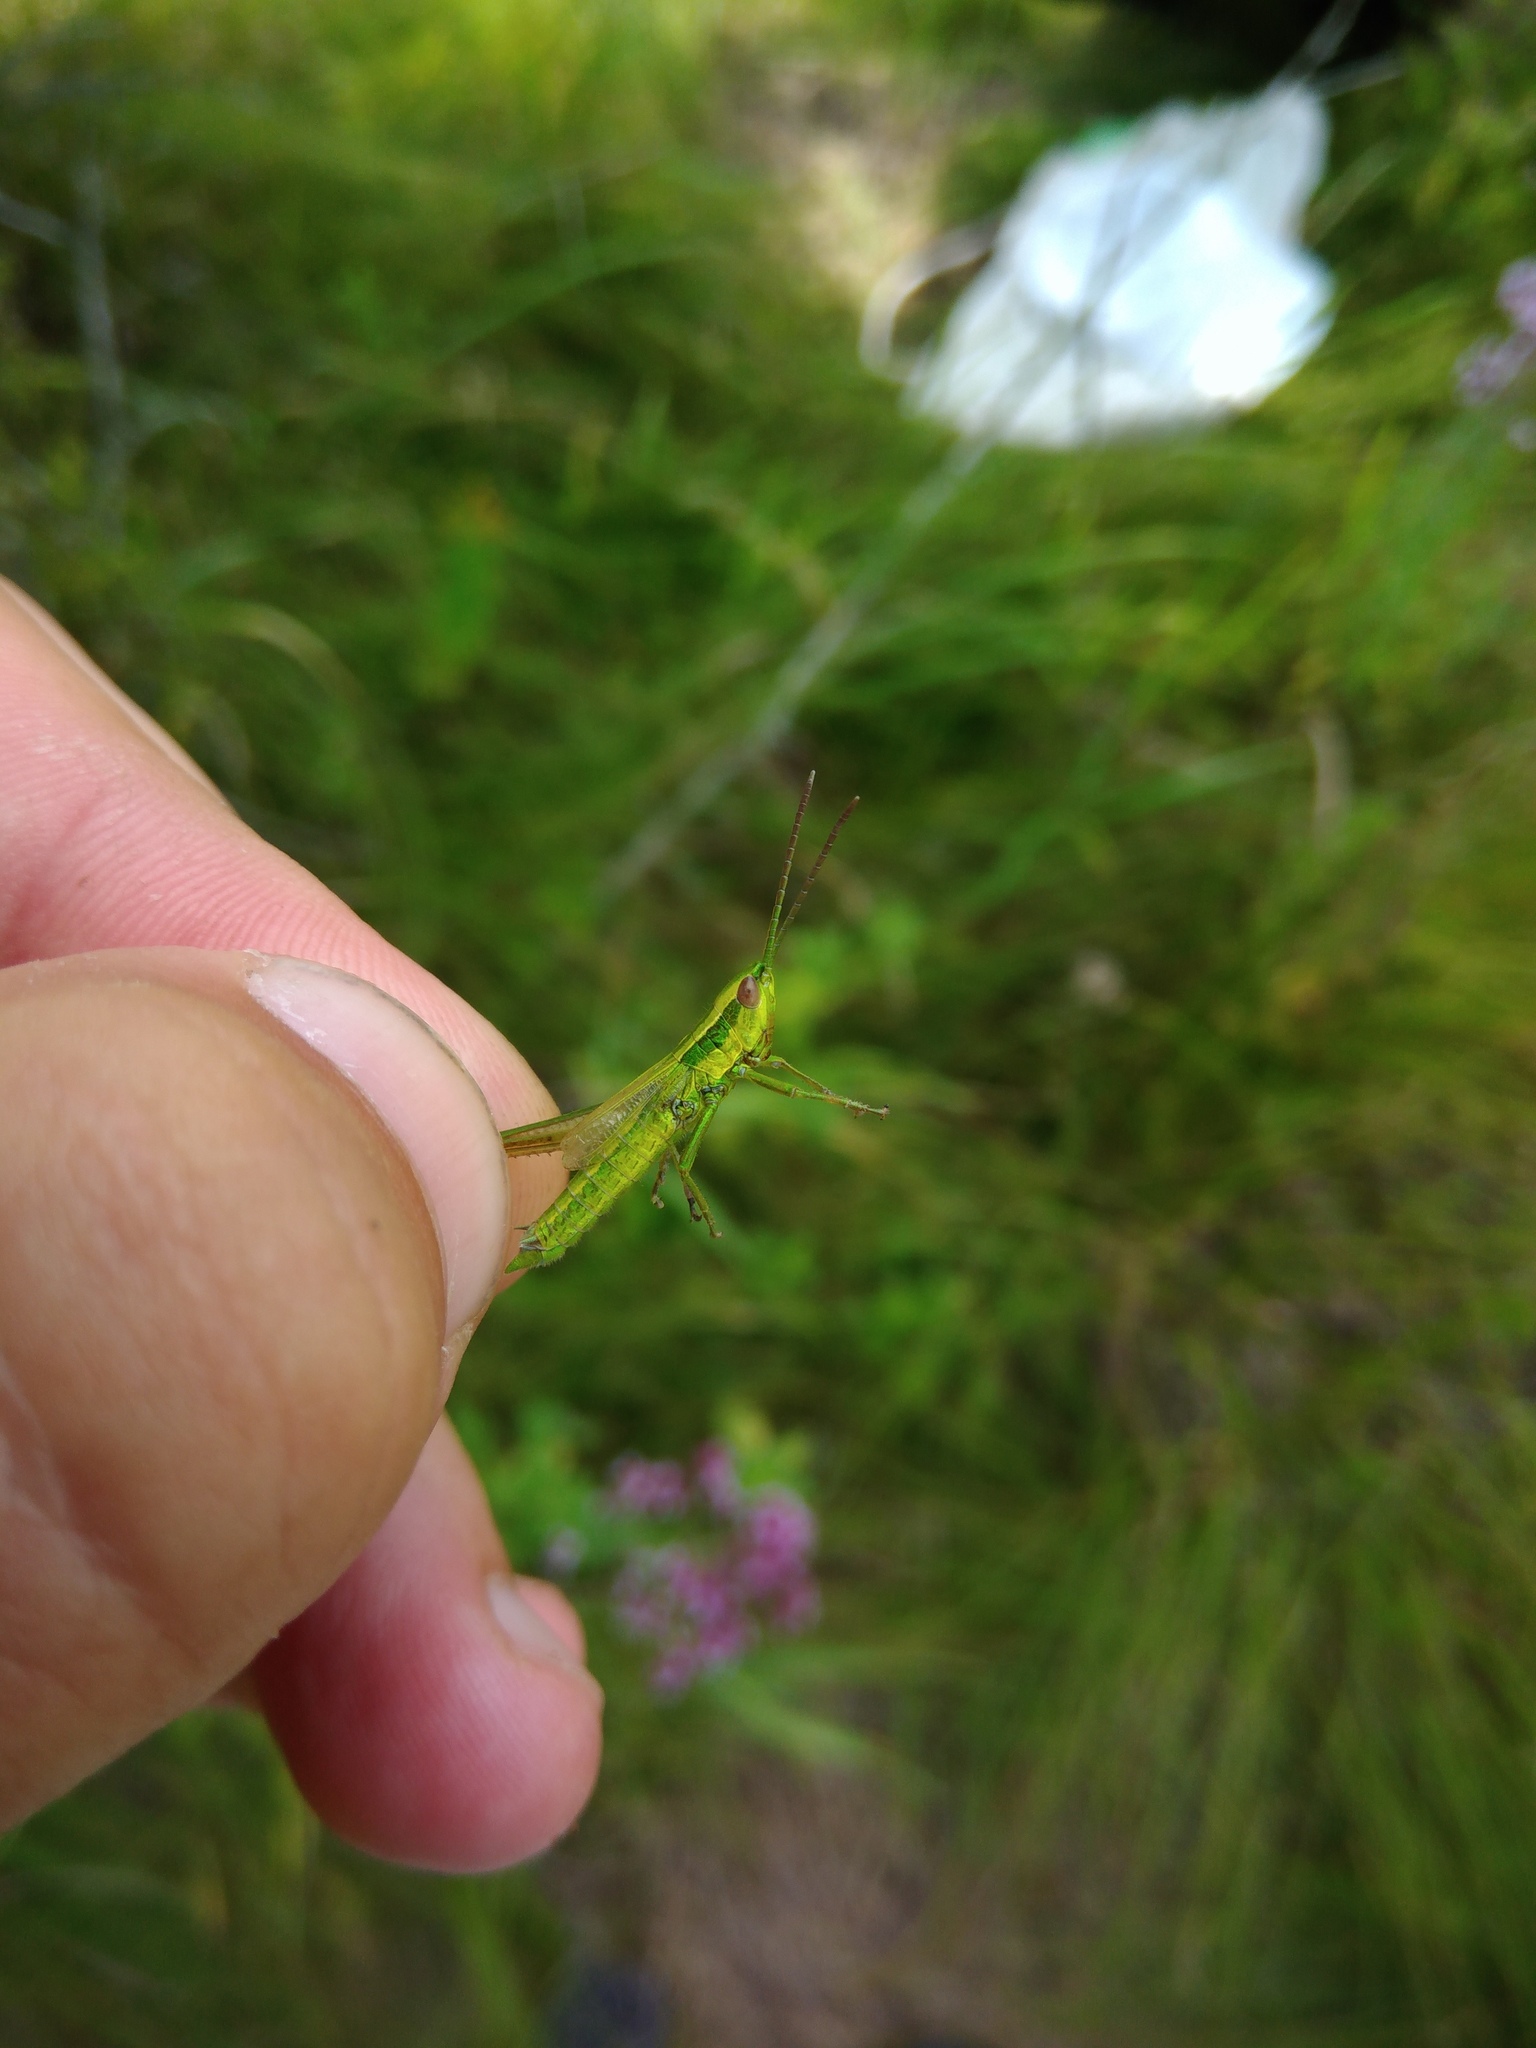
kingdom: Animalia
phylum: Arthropoda
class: Insecta
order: Orthoptera
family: Acrididae
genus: Euthystira
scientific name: Euthystira brachyptera
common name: Small gold grasshopper
